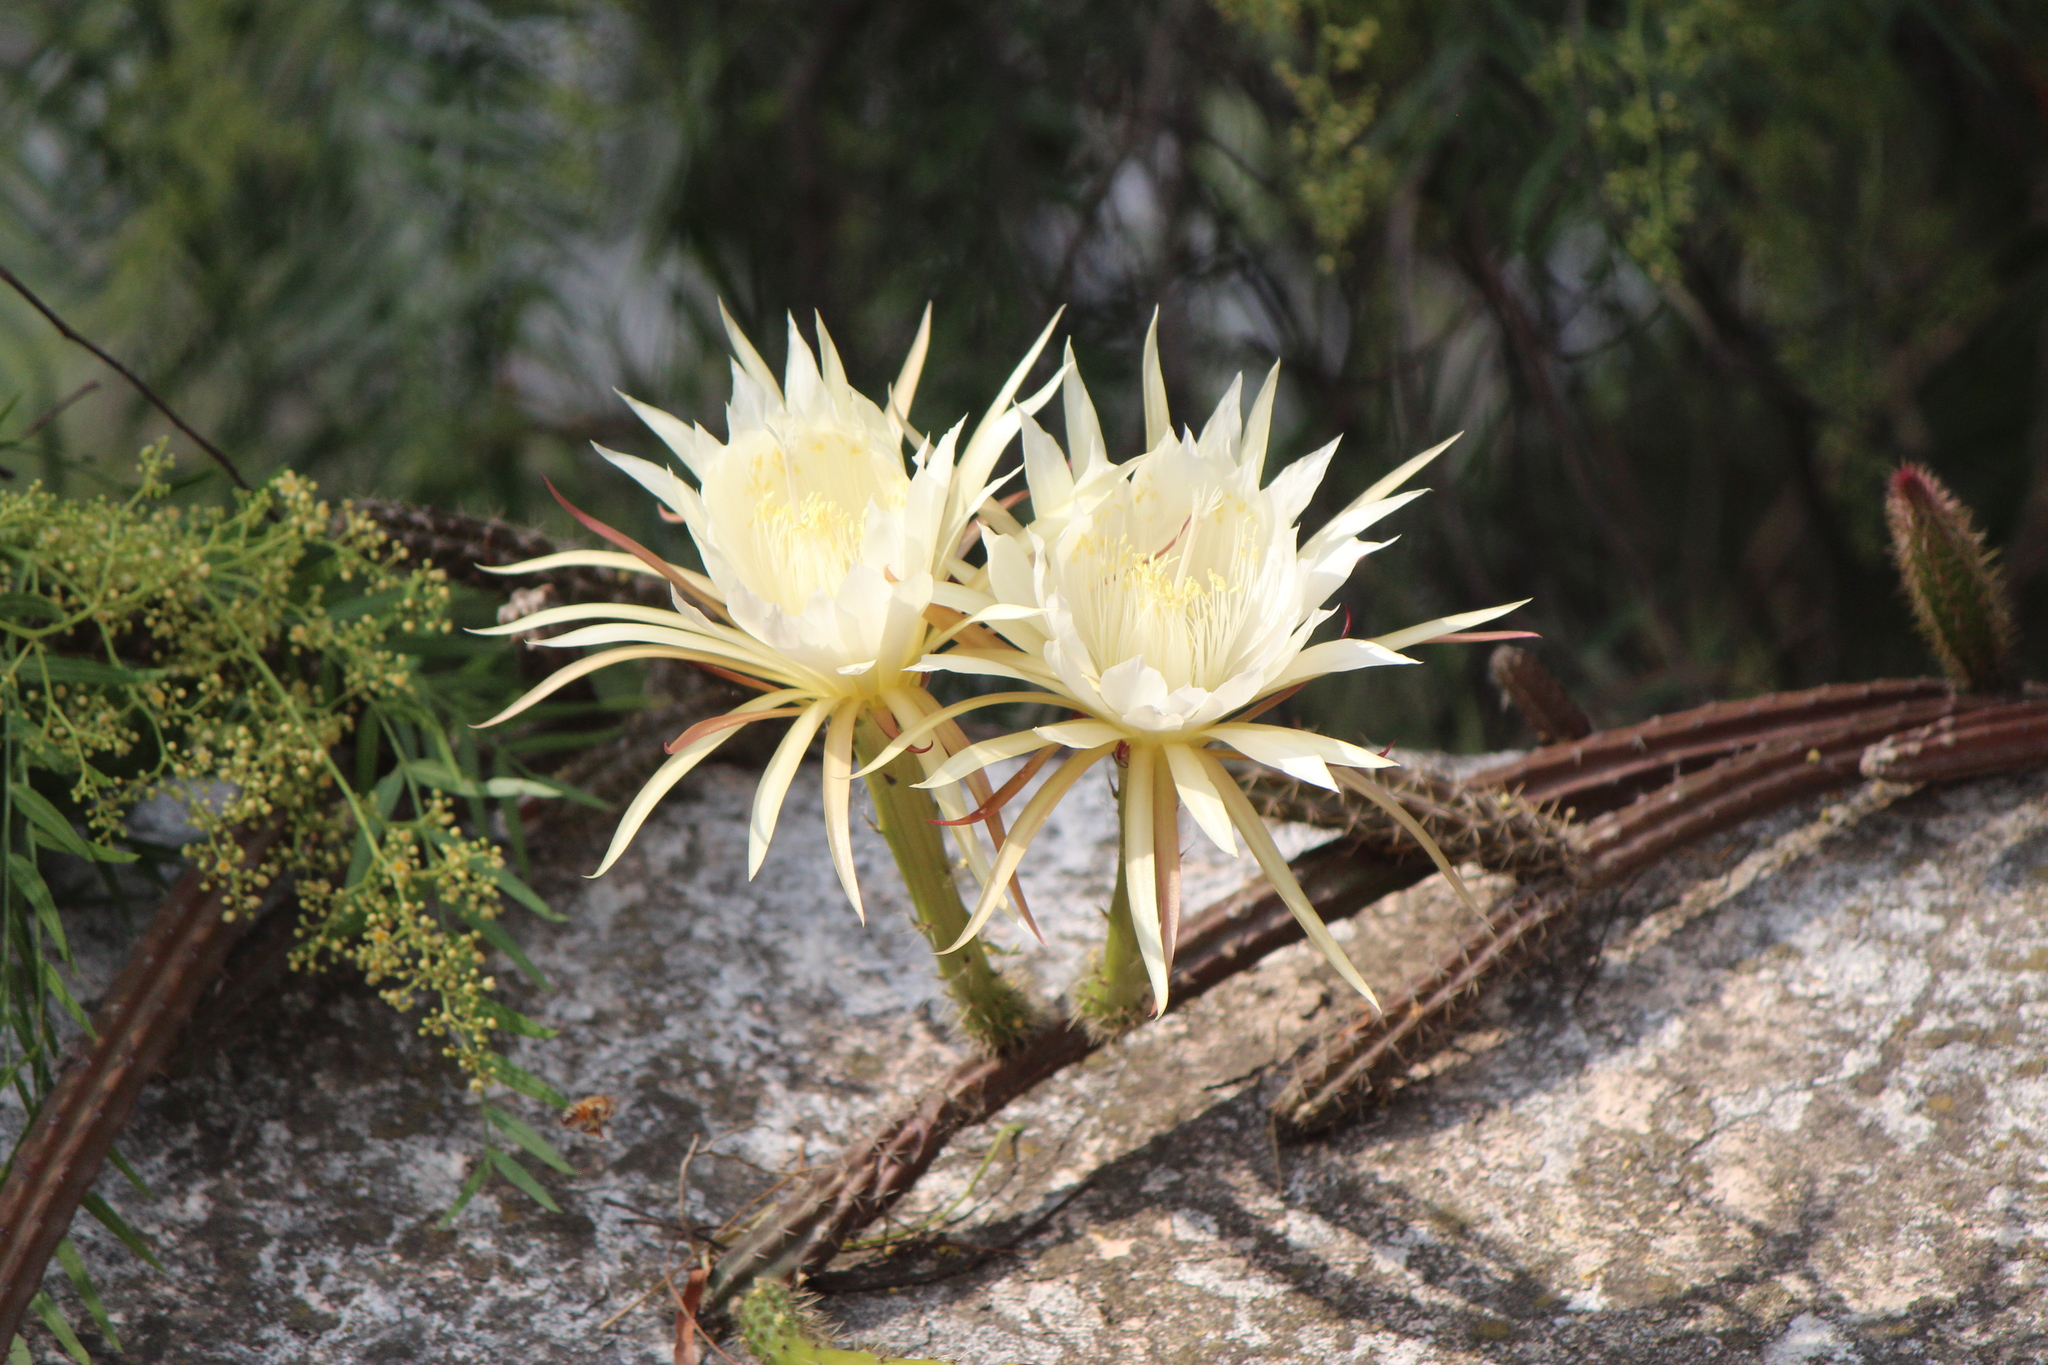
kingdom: Plantae
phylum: Tracheophyta
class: Magnoliopsida
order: Caryophyllales
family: Cactaceae
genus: Selenicereus
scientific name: Selenicereus spinulosus
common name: Nightblooming cereus
